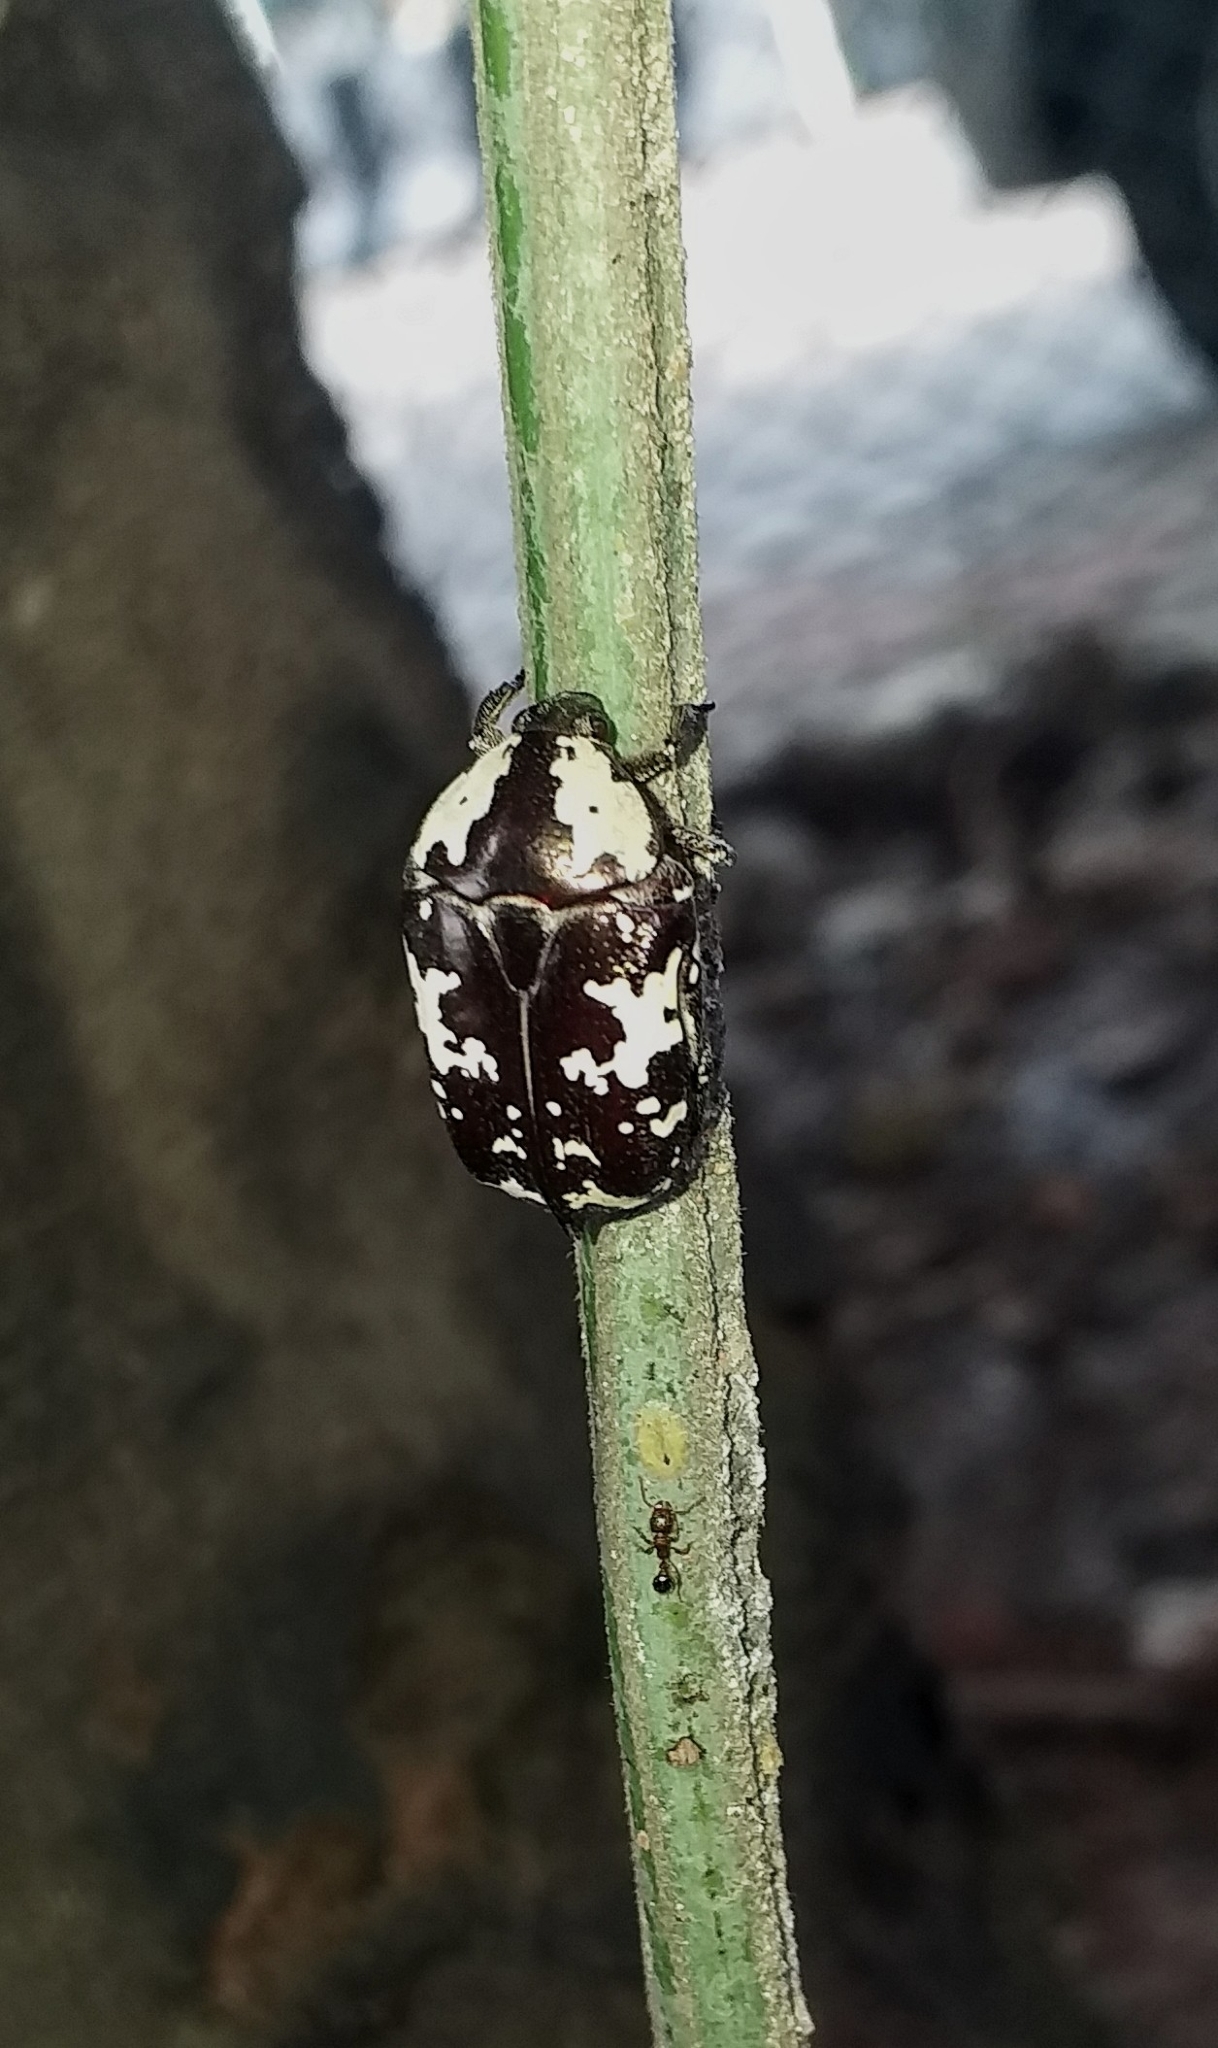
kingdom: Animalia
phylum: Arthropoda
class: Insecta
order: Coleoptera
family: Scarabaeidae
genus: Protaetia
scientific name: Protaetia aurichalcea
